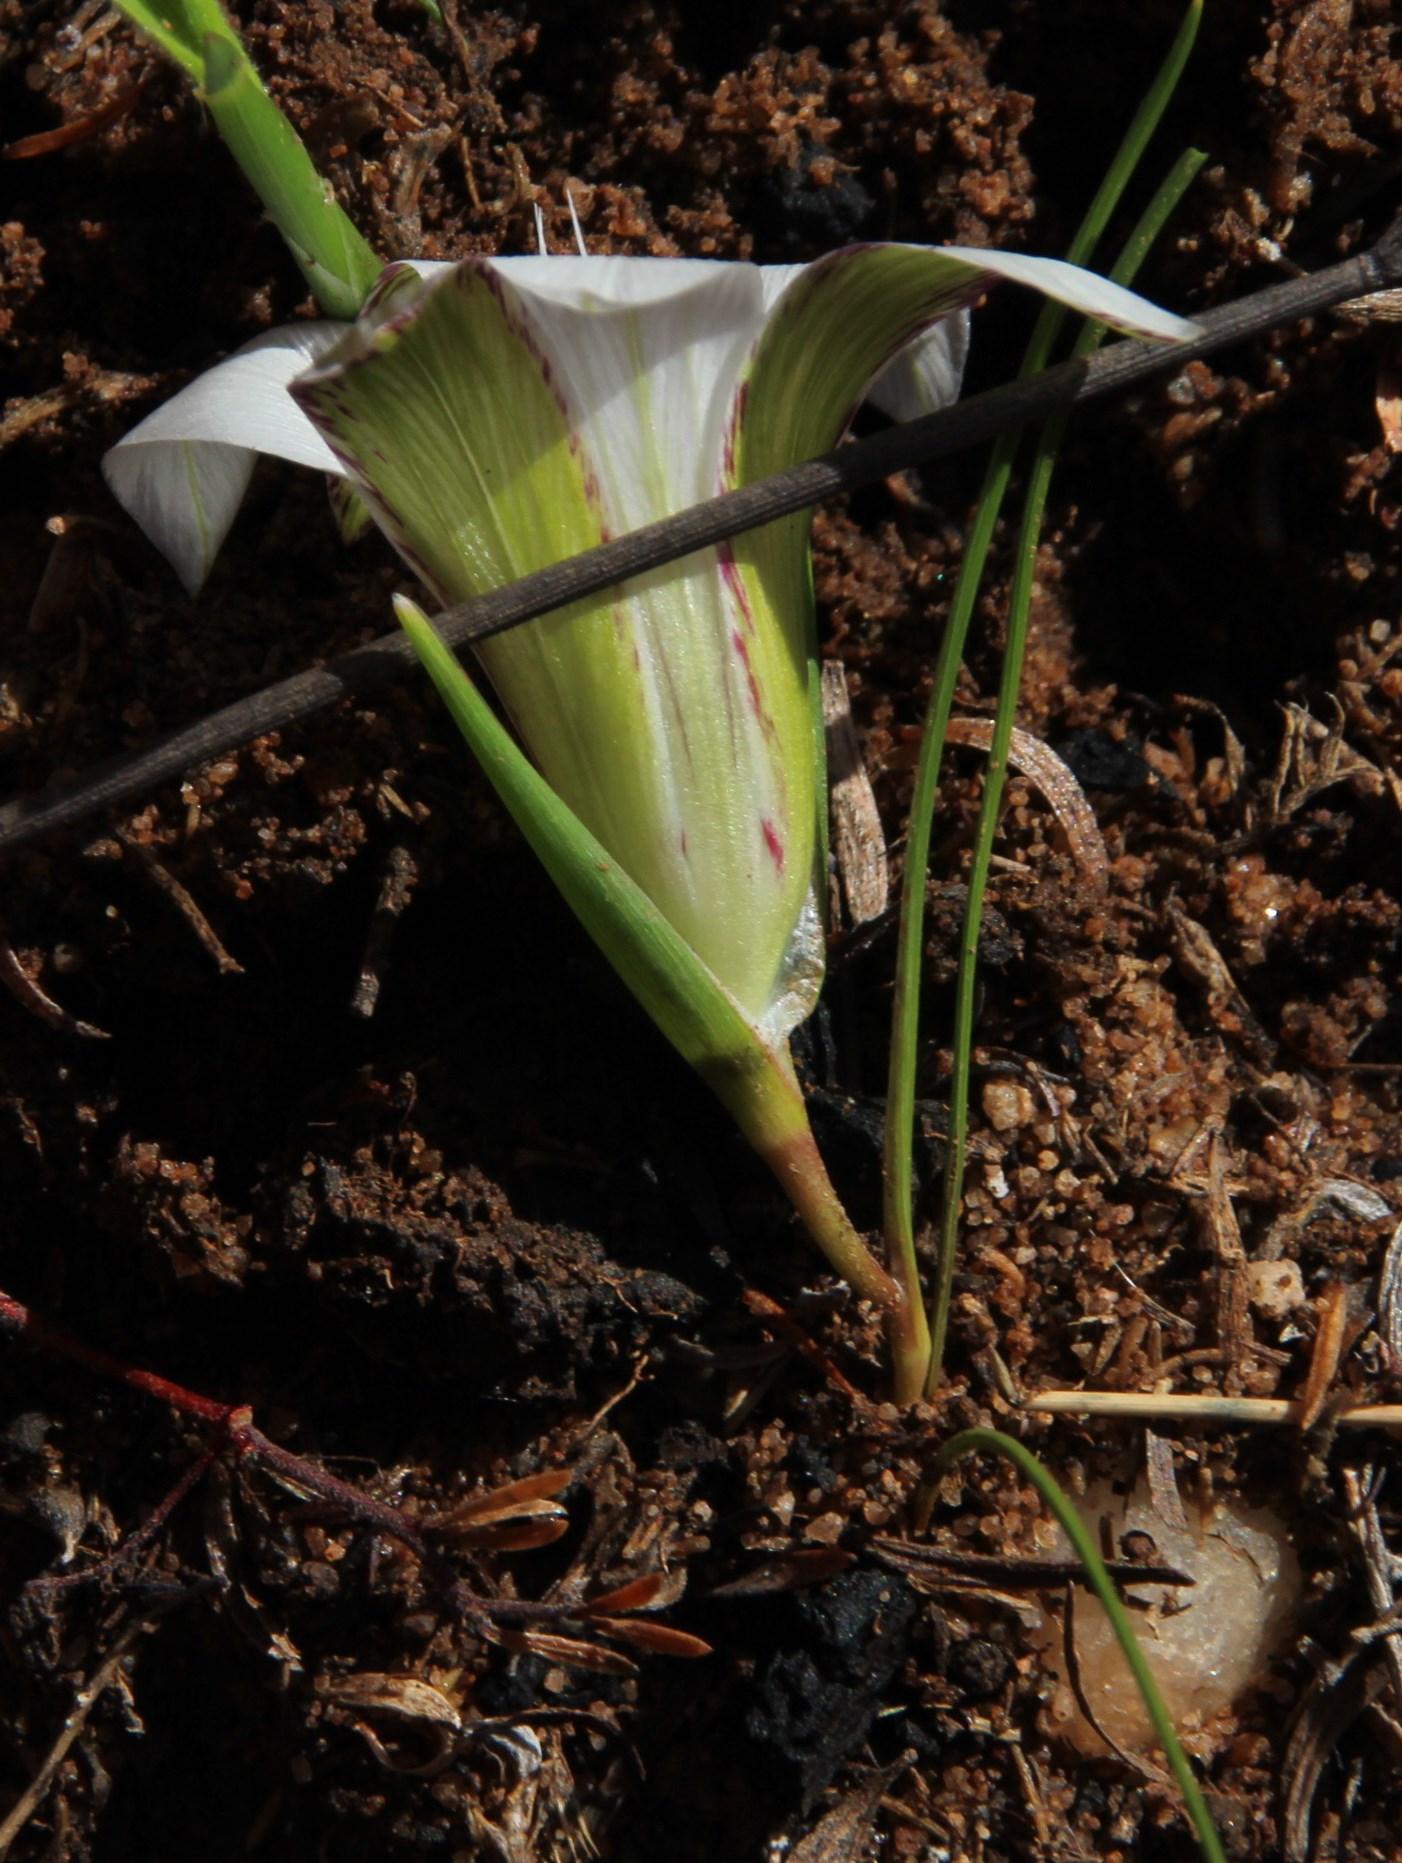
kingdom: Plantae
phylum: Tracheophyta
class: Liliopsida
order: Asparagales
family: Iridaceae
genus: Romulea
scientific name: Romulea flexuosa
